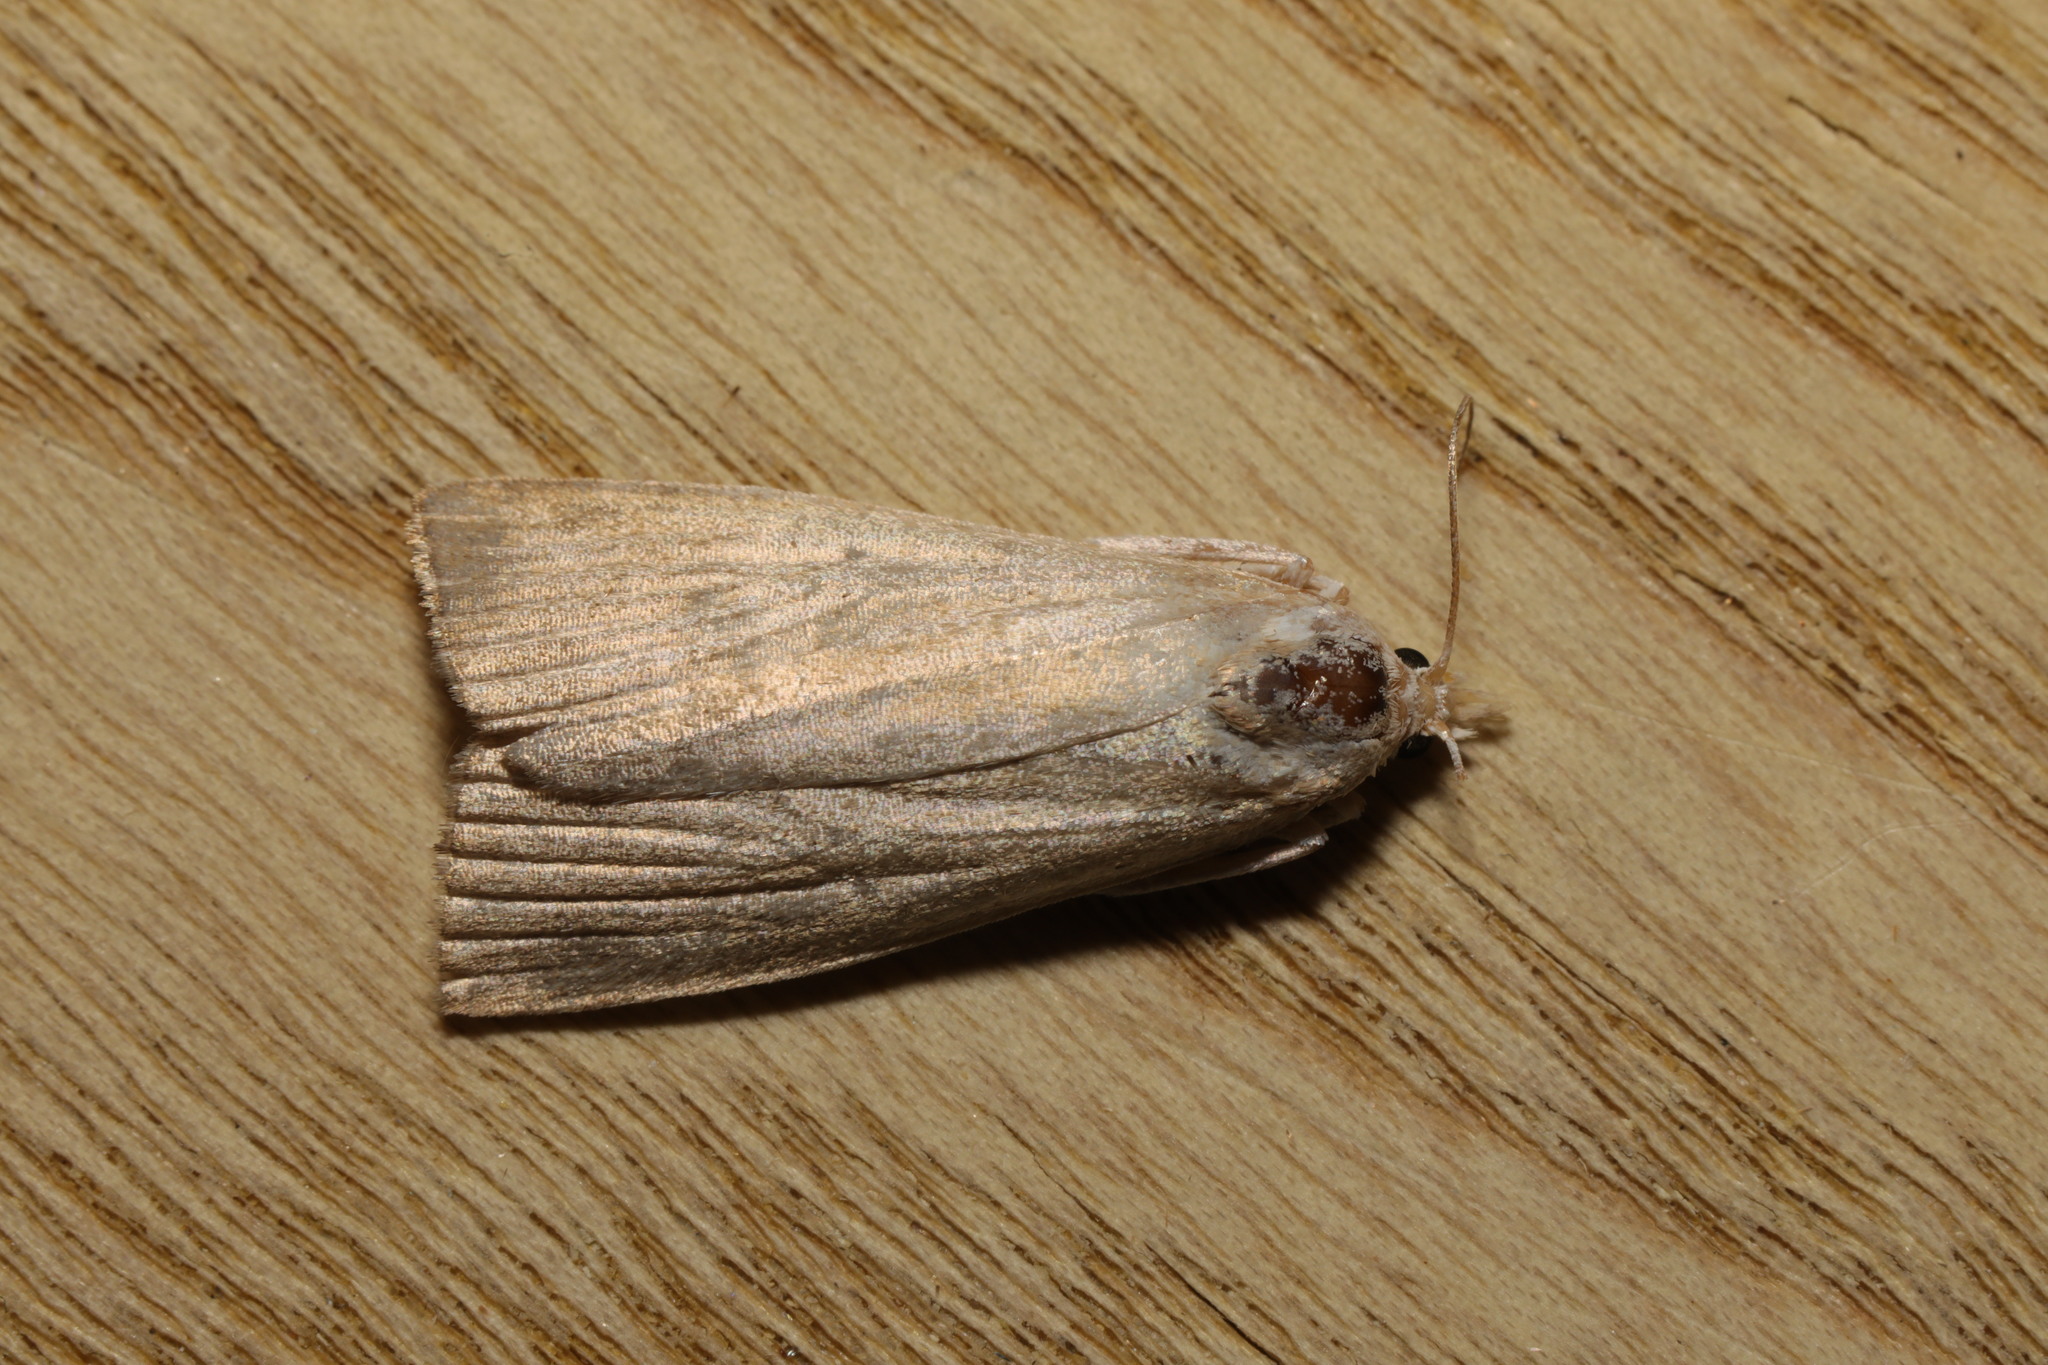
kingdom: Animalia
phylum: Arthropoda
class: Insecta
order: Lepidoptera
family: Noctuidae
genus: Chilodes
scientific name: Chilodes maritima
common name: Silky wainscot
